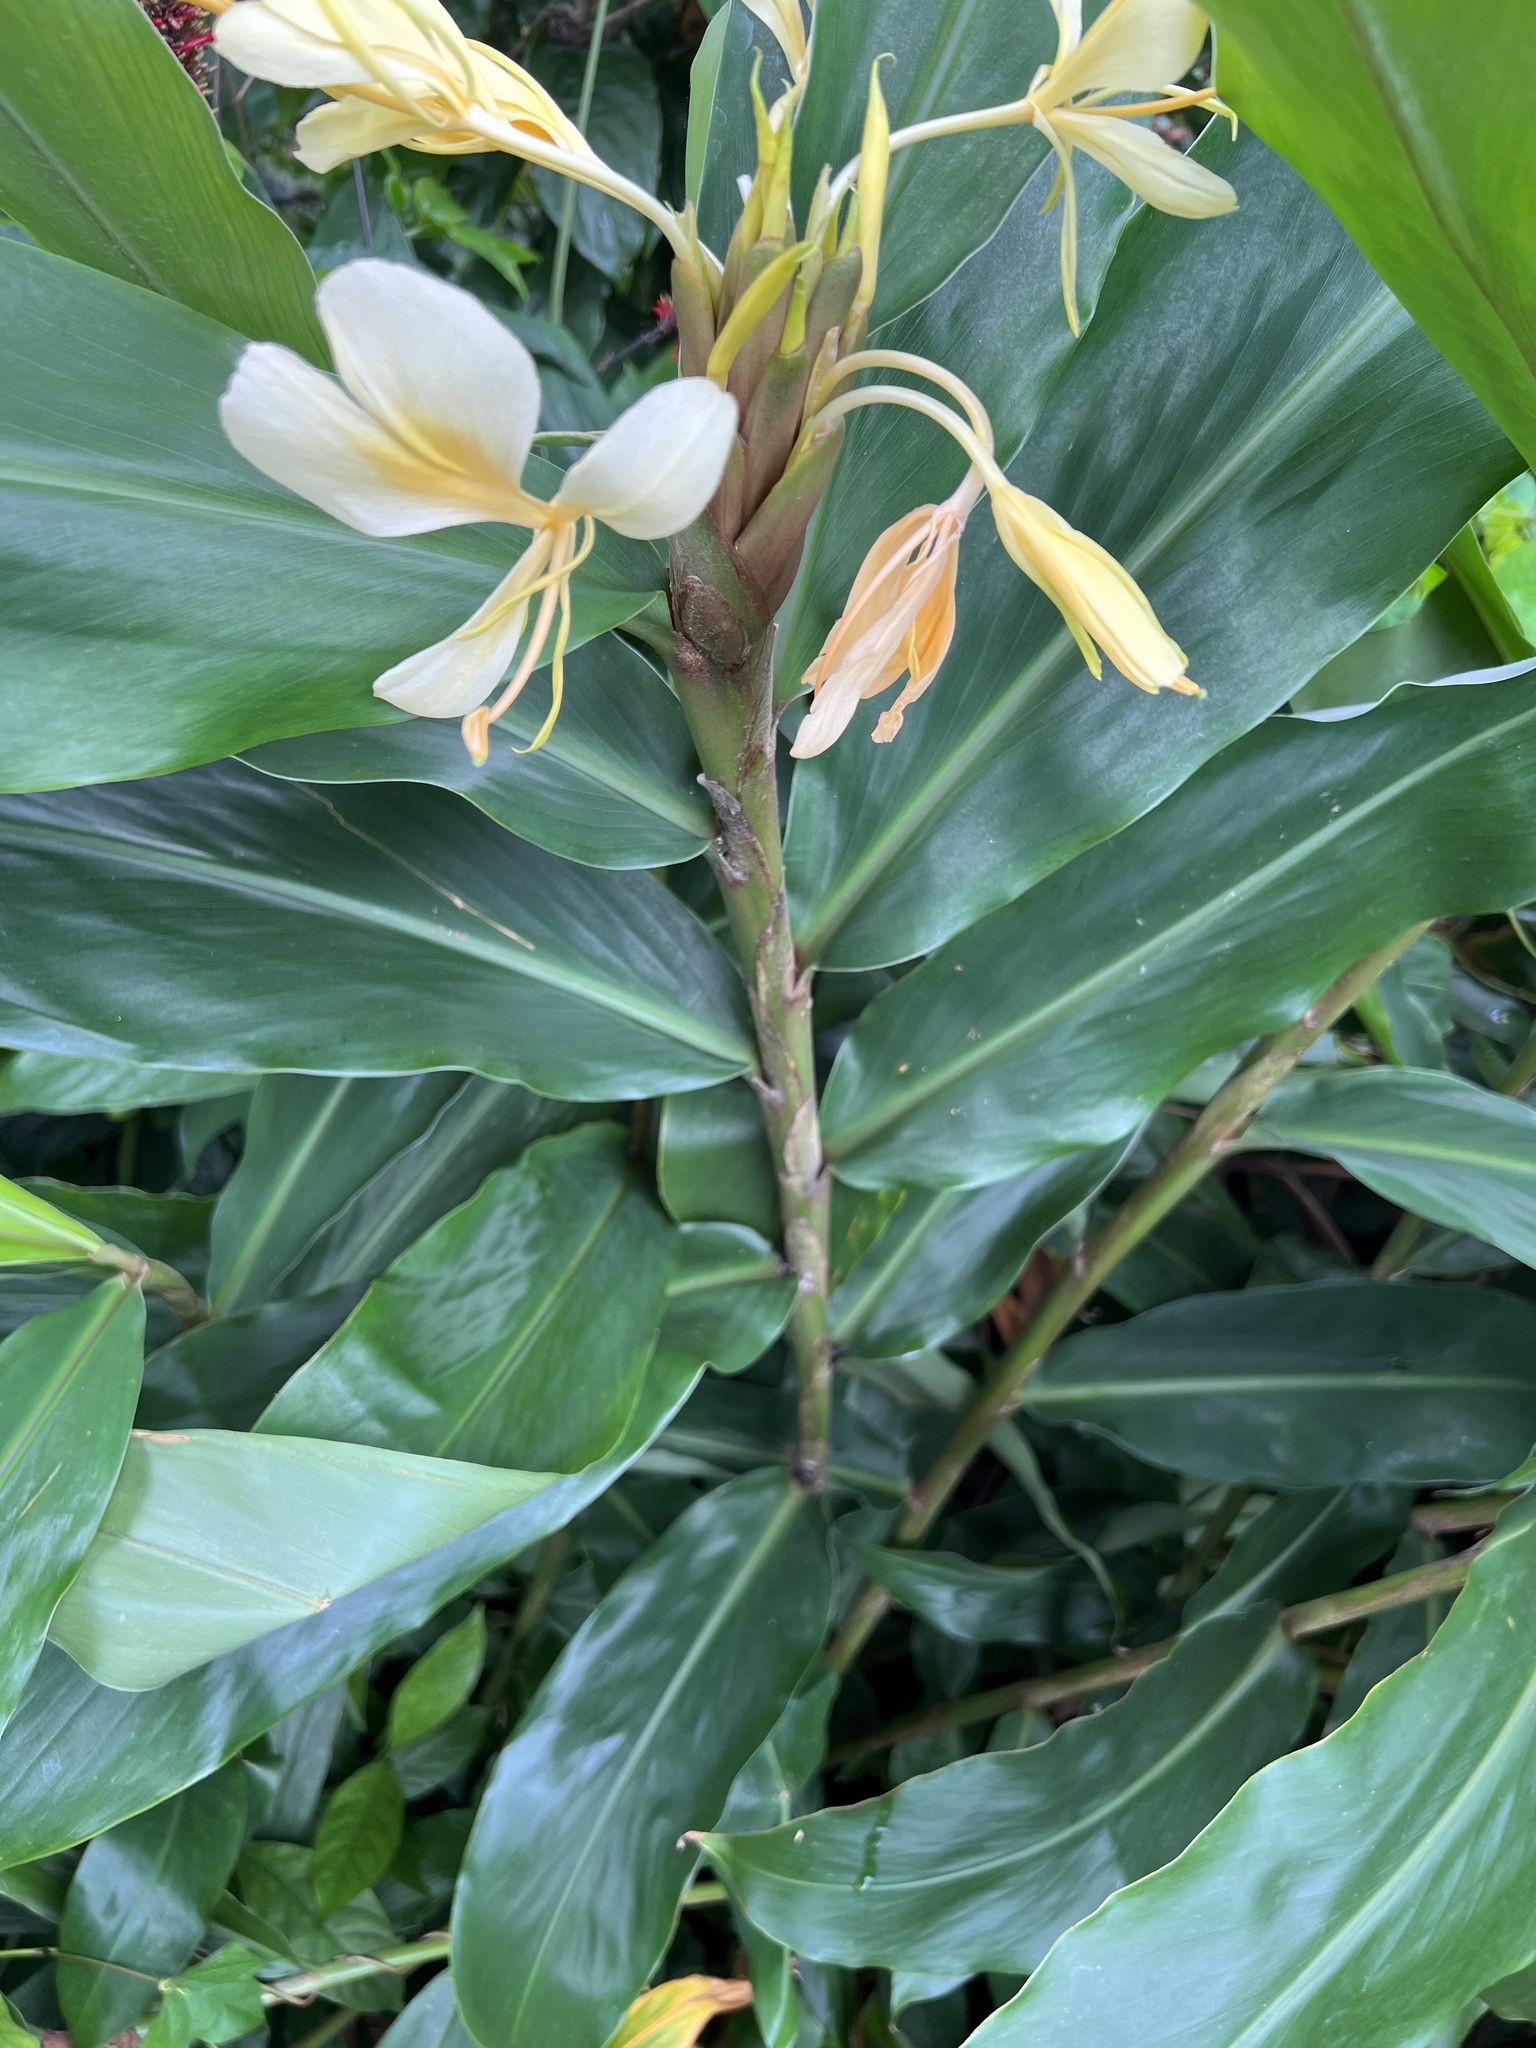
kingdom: Plantae
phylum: Tracheophyta
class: Liliopsida
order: Zingiberales
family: Zingiberaceae
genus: Hedychium
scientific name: Hedychium flavescens
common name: Yellow ginger
